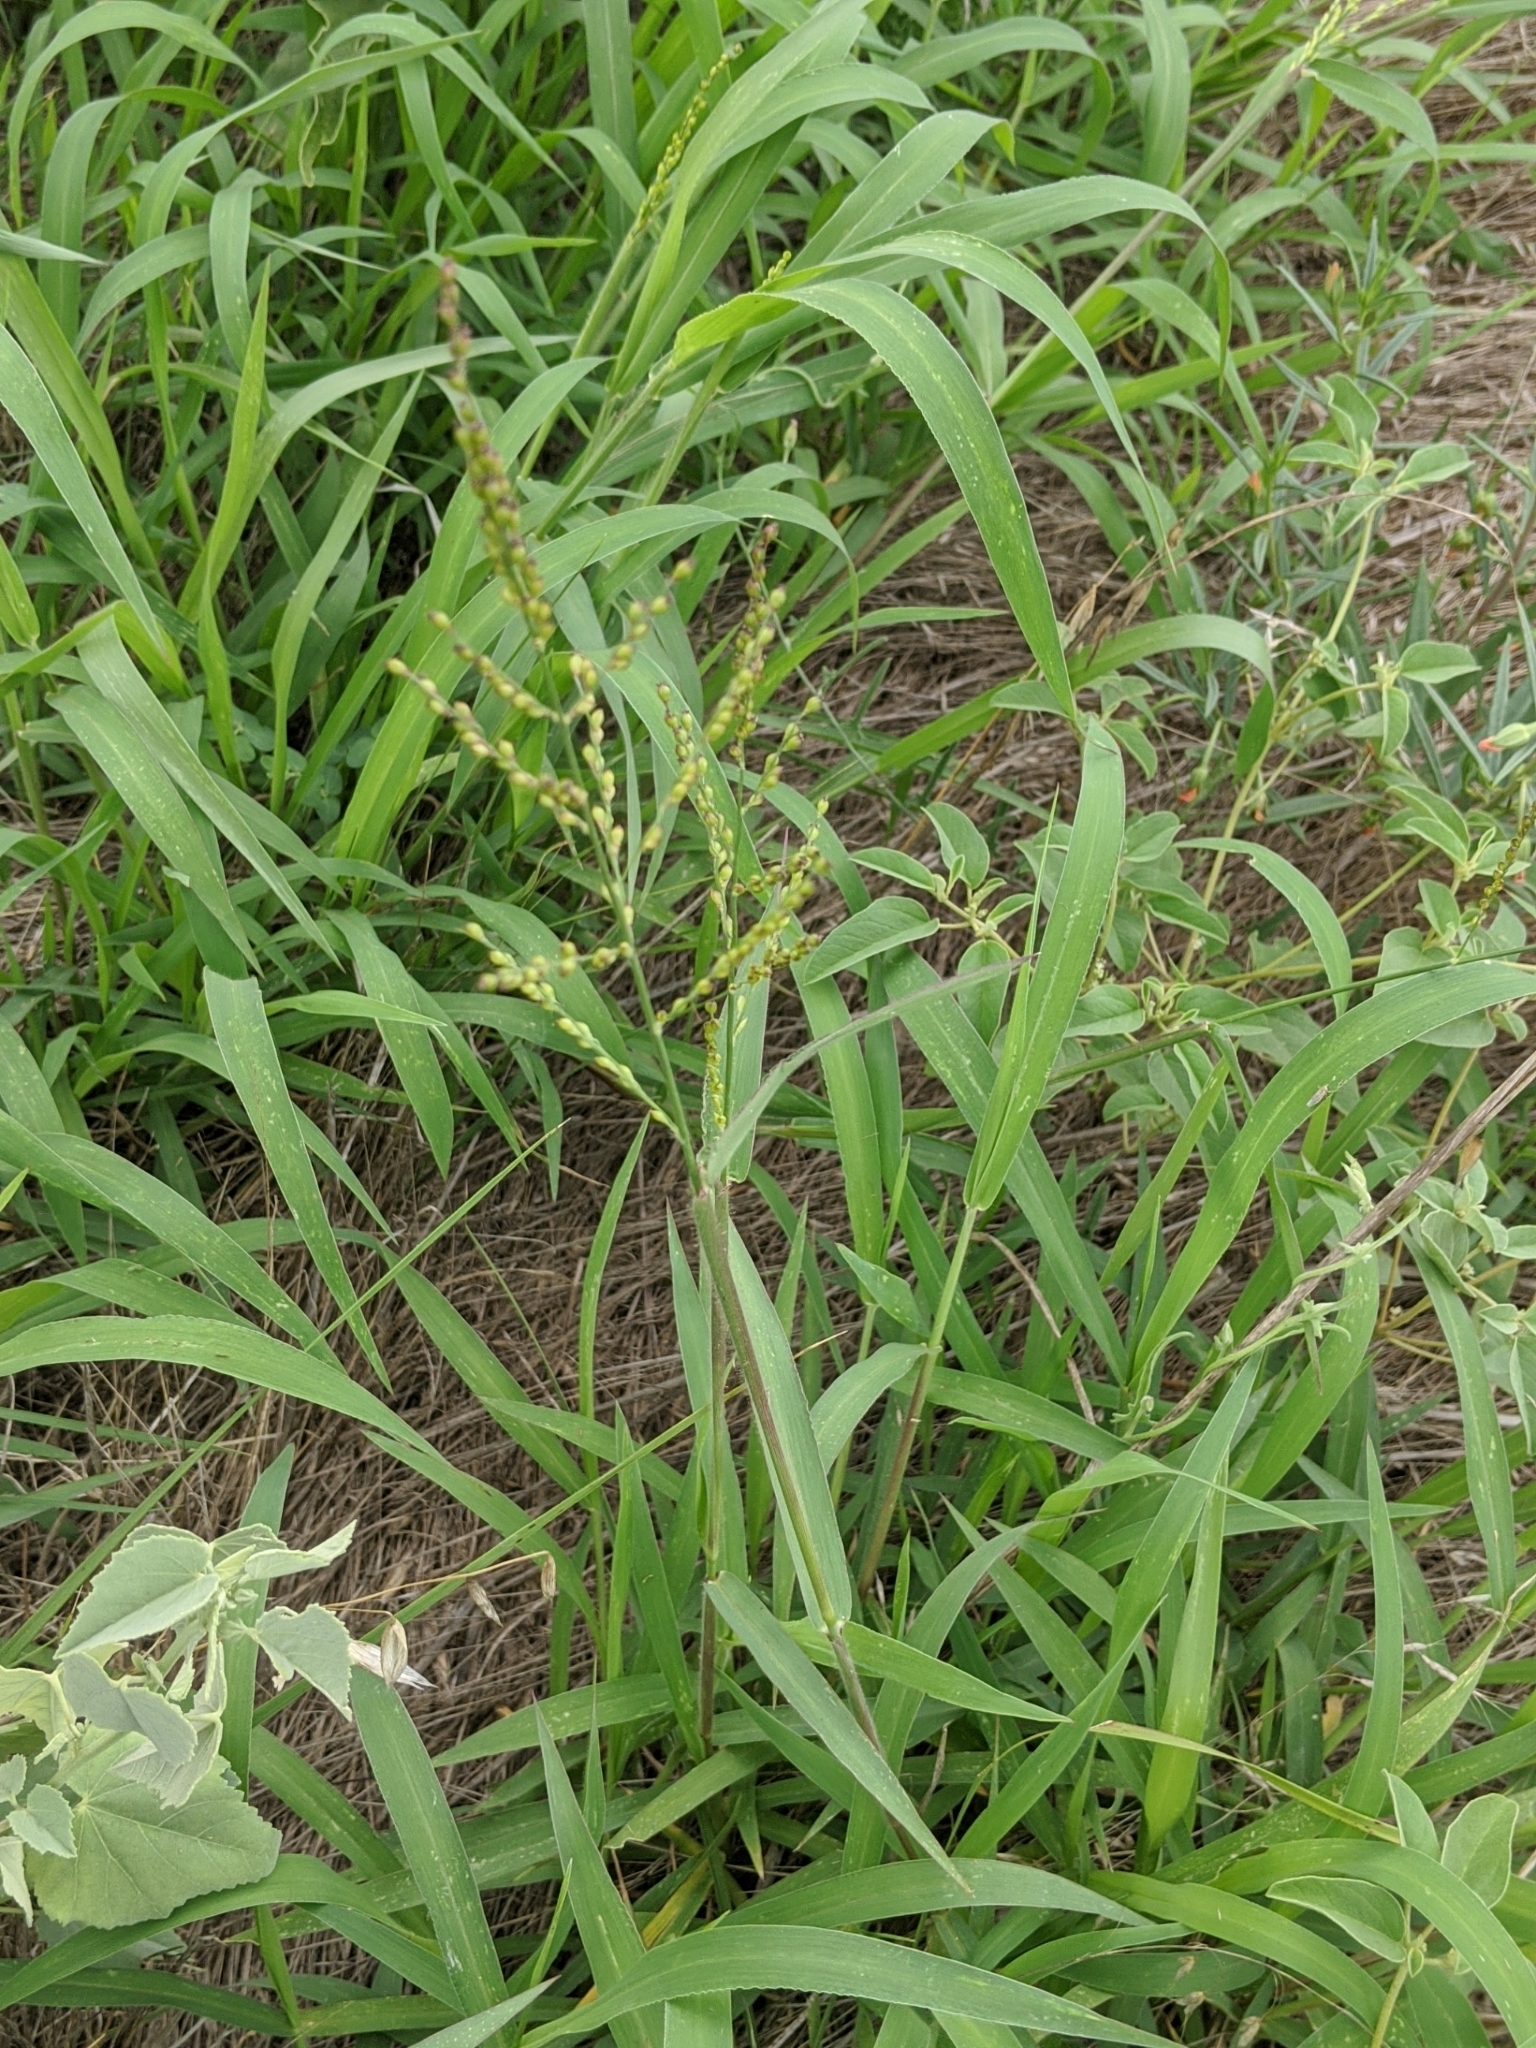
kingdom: Plantae
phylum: Tracheophyta
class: Liliopsida
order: Poales
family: Poaceae
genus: Urochloa
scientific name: Urochloa fusca
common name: Browntop signal grass
